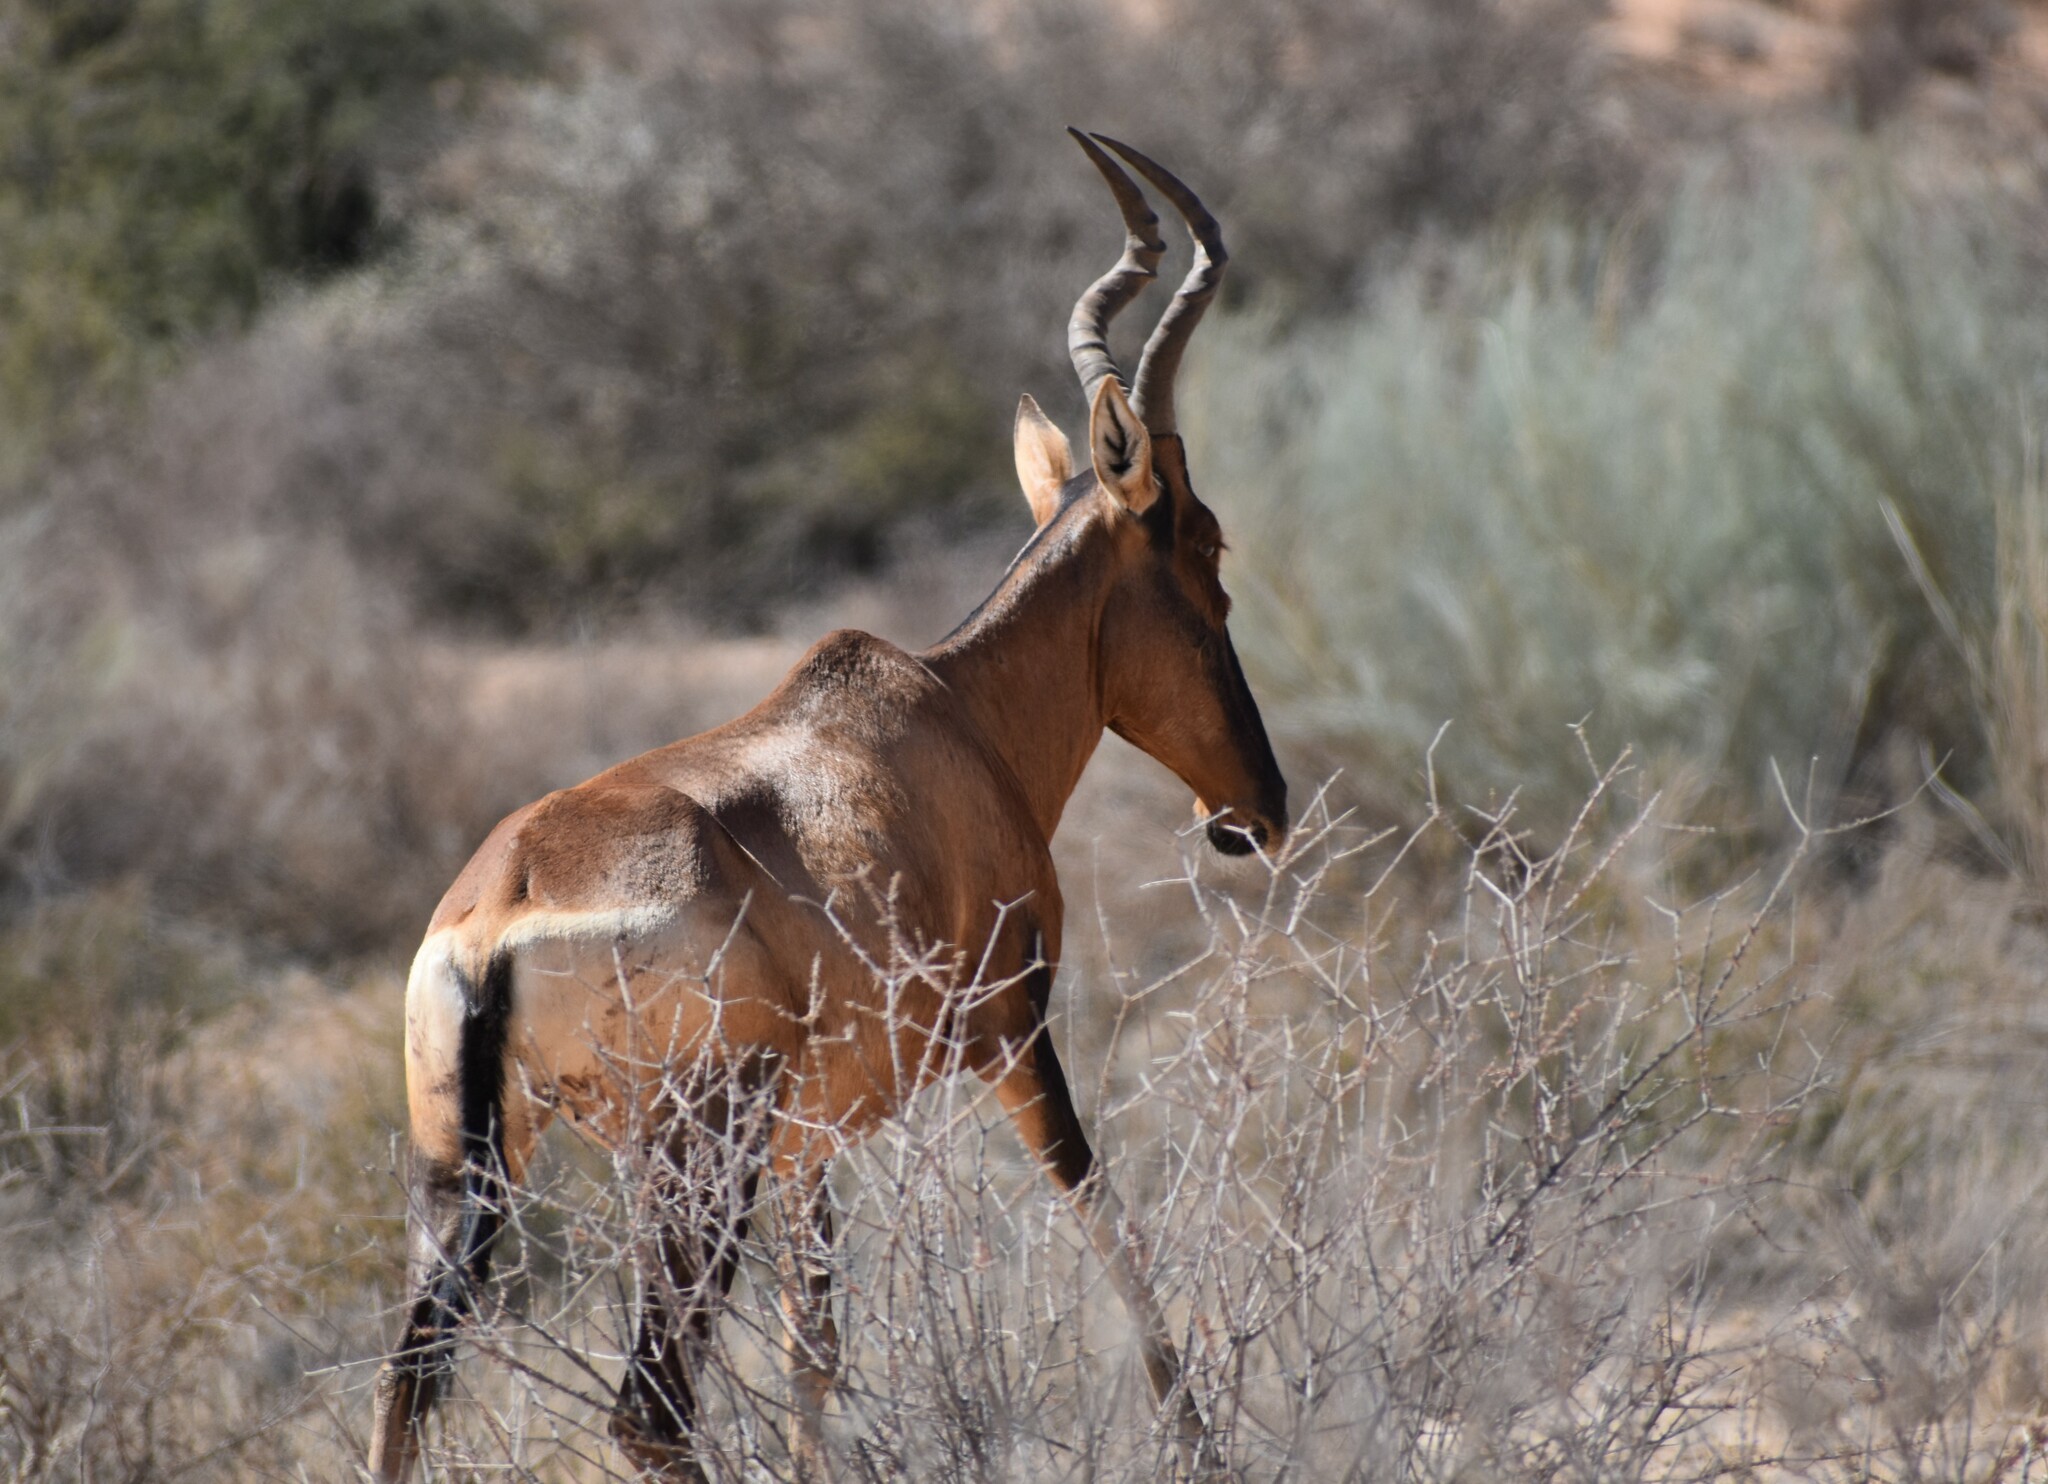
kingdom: Animalia
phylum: Chordata
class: Mammalia
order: Artiodactyla
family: Bovidae
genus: Alcelaphus
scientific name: Alcelaphus caama
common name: Red hartebeest
